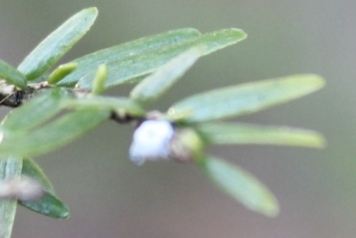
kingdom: Animalia
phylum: Arthropoda
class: Insecta
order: Hemiptera
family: Adelgidae
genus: Adelges
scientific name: Adelges tsugae
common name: Hemlock woolly adelgid
